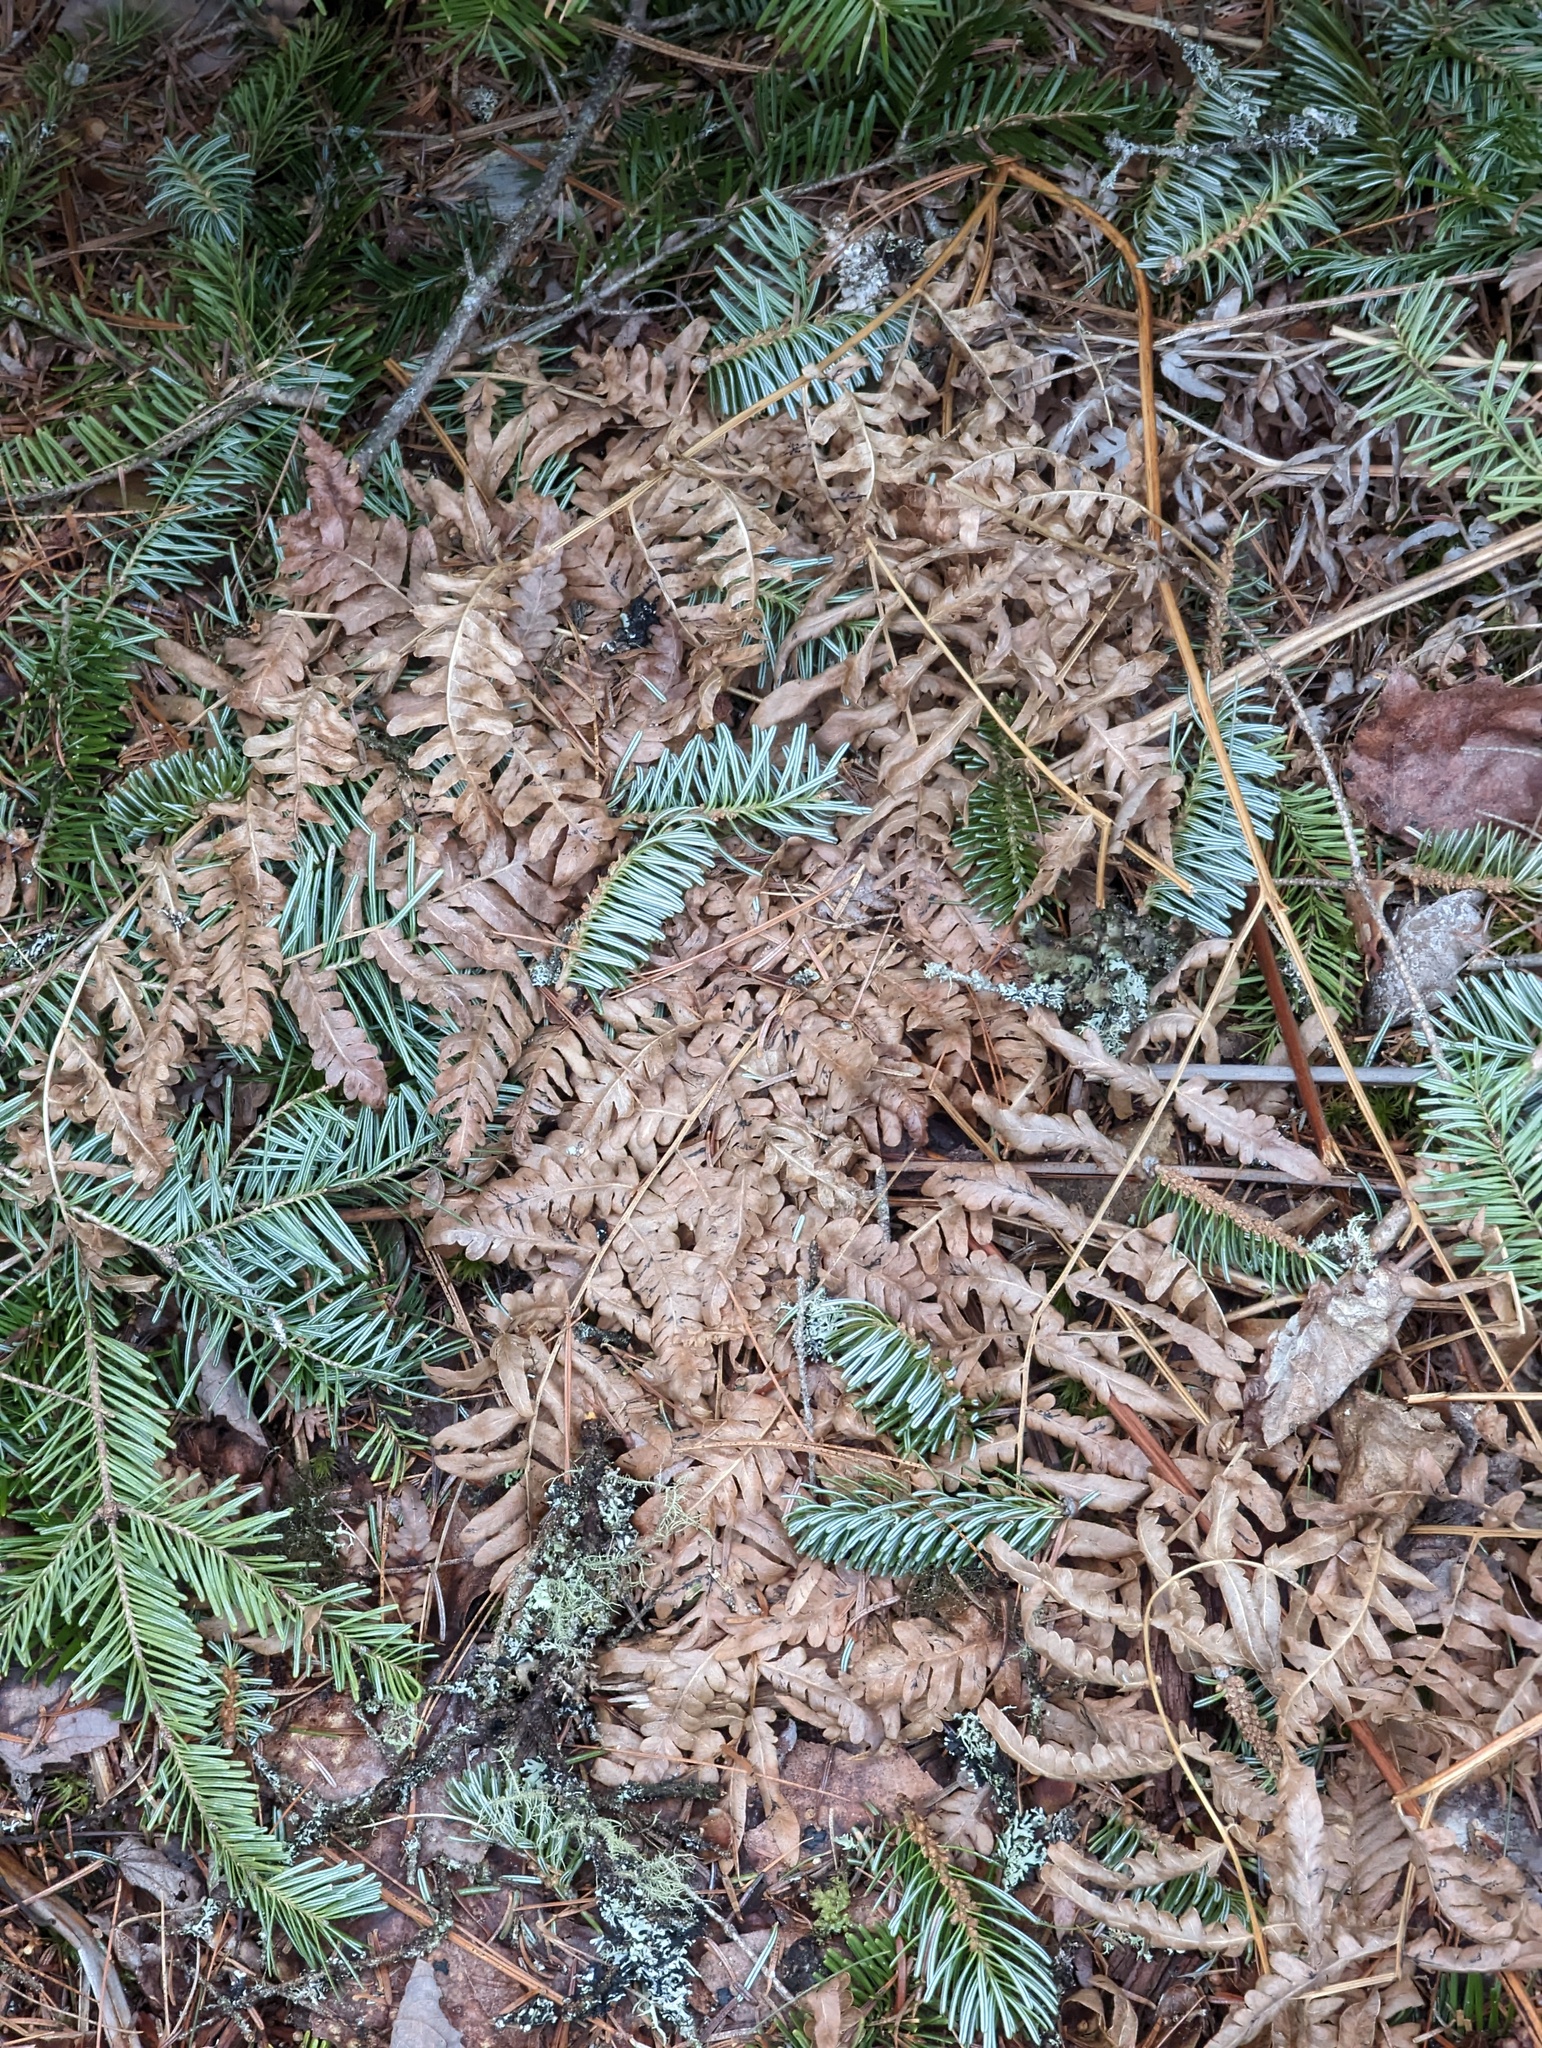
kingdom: Plantae
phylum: Tracheophyta
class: Polypodiopsida
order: Polypodiales
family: Dennstaedtiaceae
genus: Pteridium
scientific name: Pteridium aquilinum
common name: Bracken
